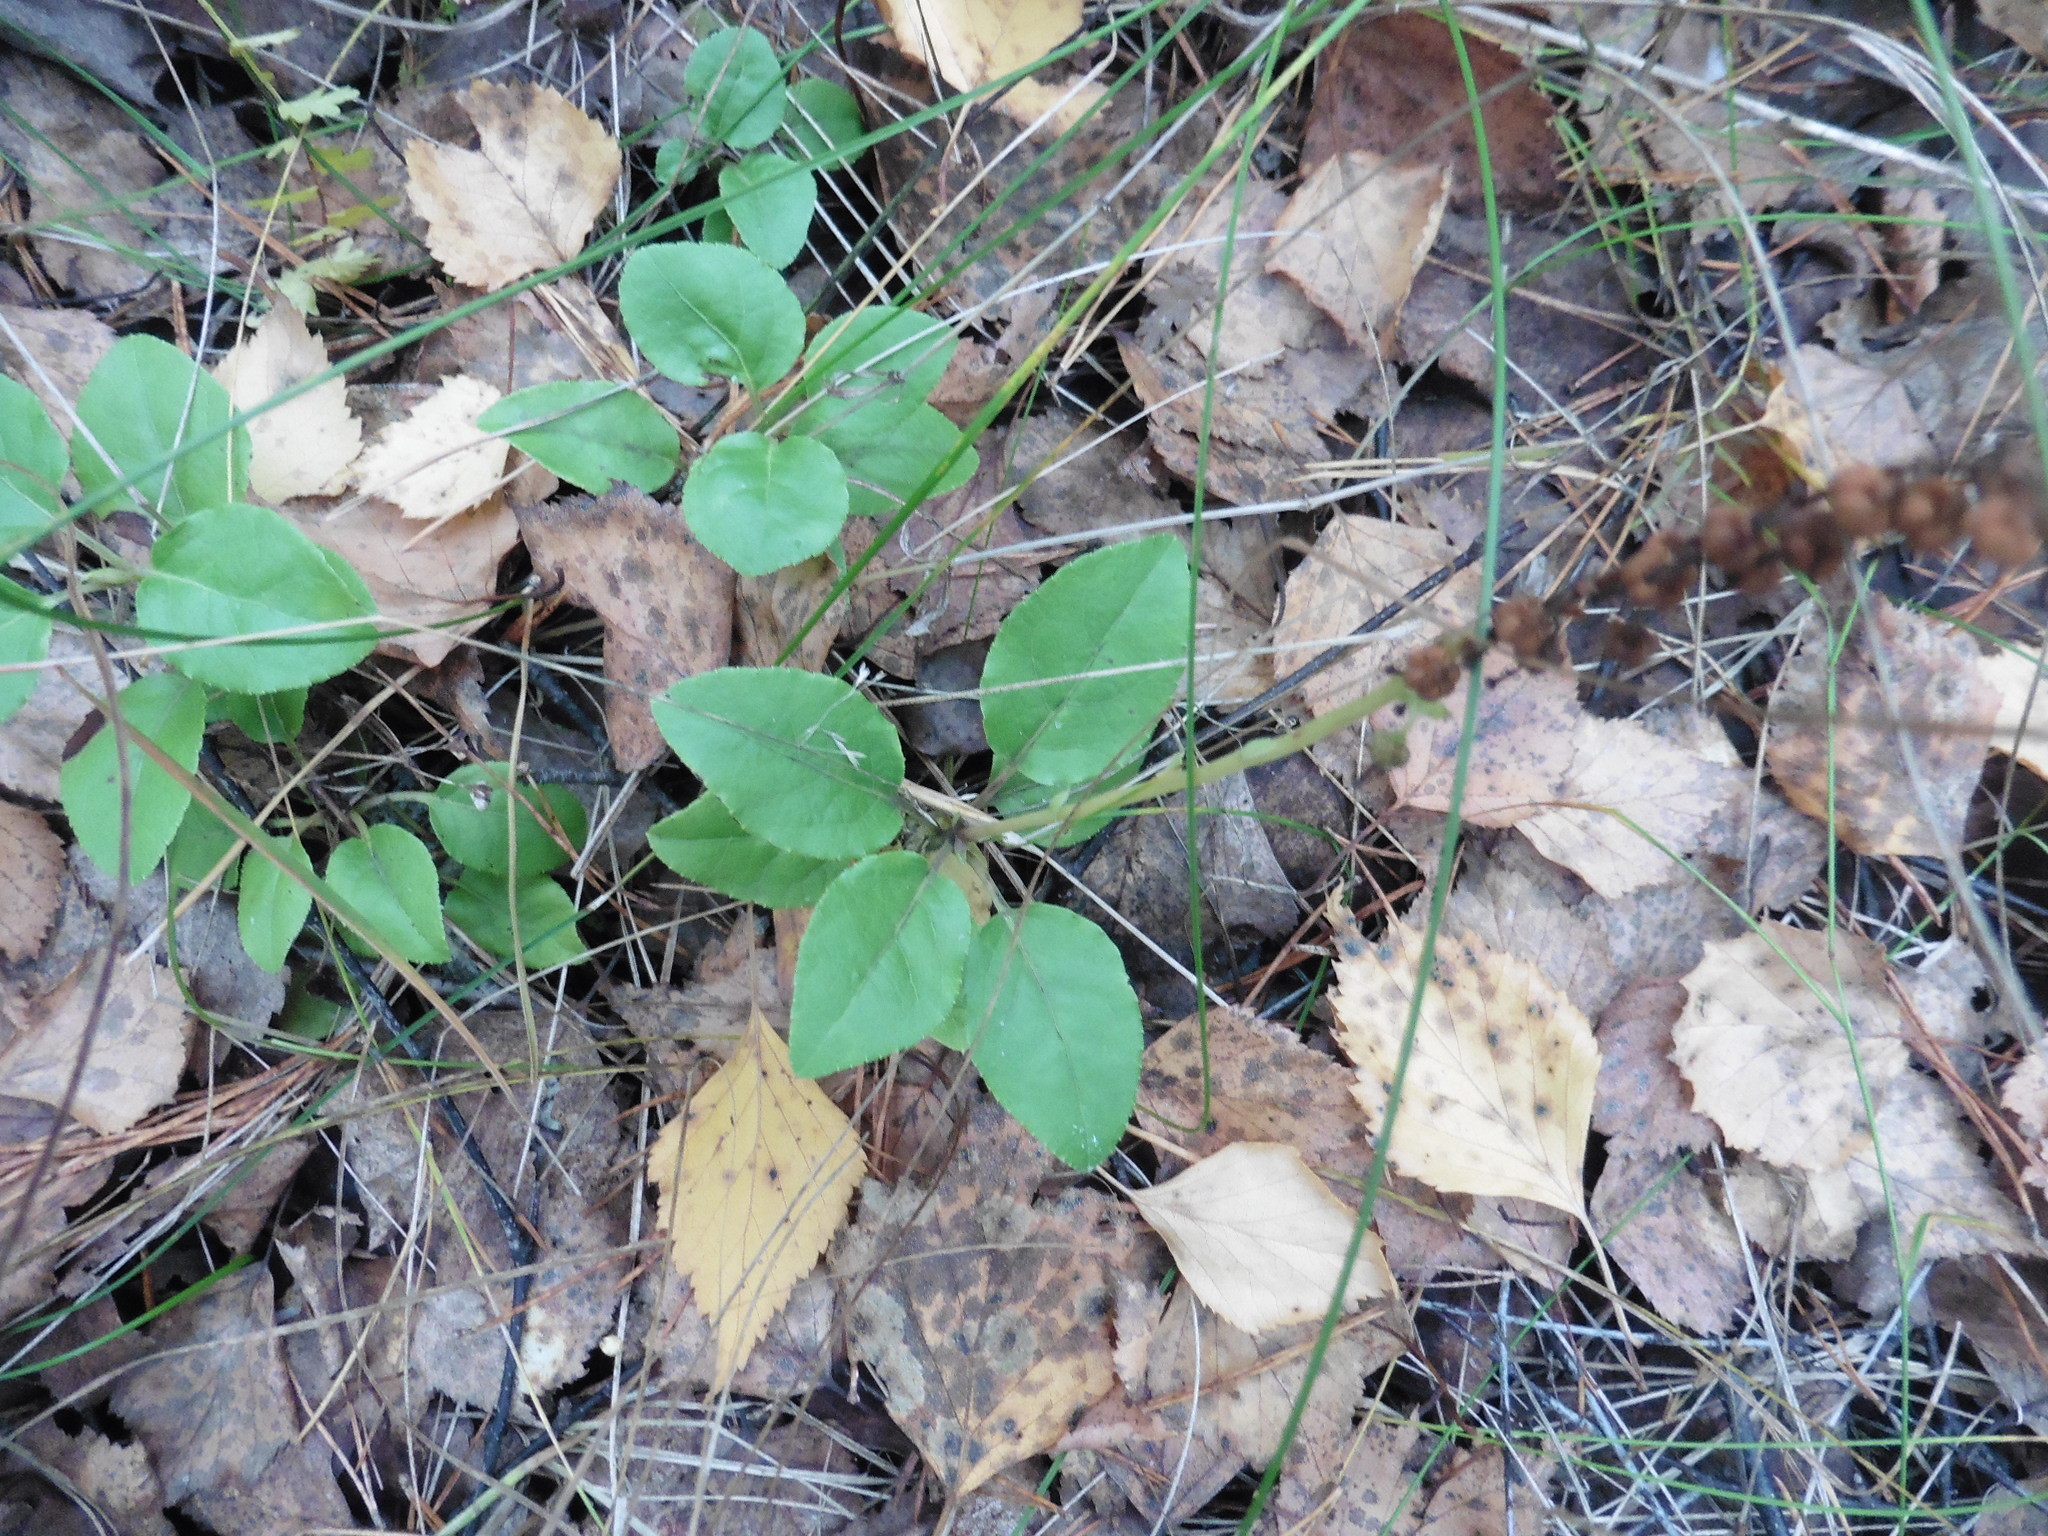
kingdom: Plantae
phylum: Tracheophyta
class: Magnoliopsida
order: Ericales
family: Ericaceae
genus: Orthilia
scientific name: Orthilia secunda
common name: One-sided orthilia
